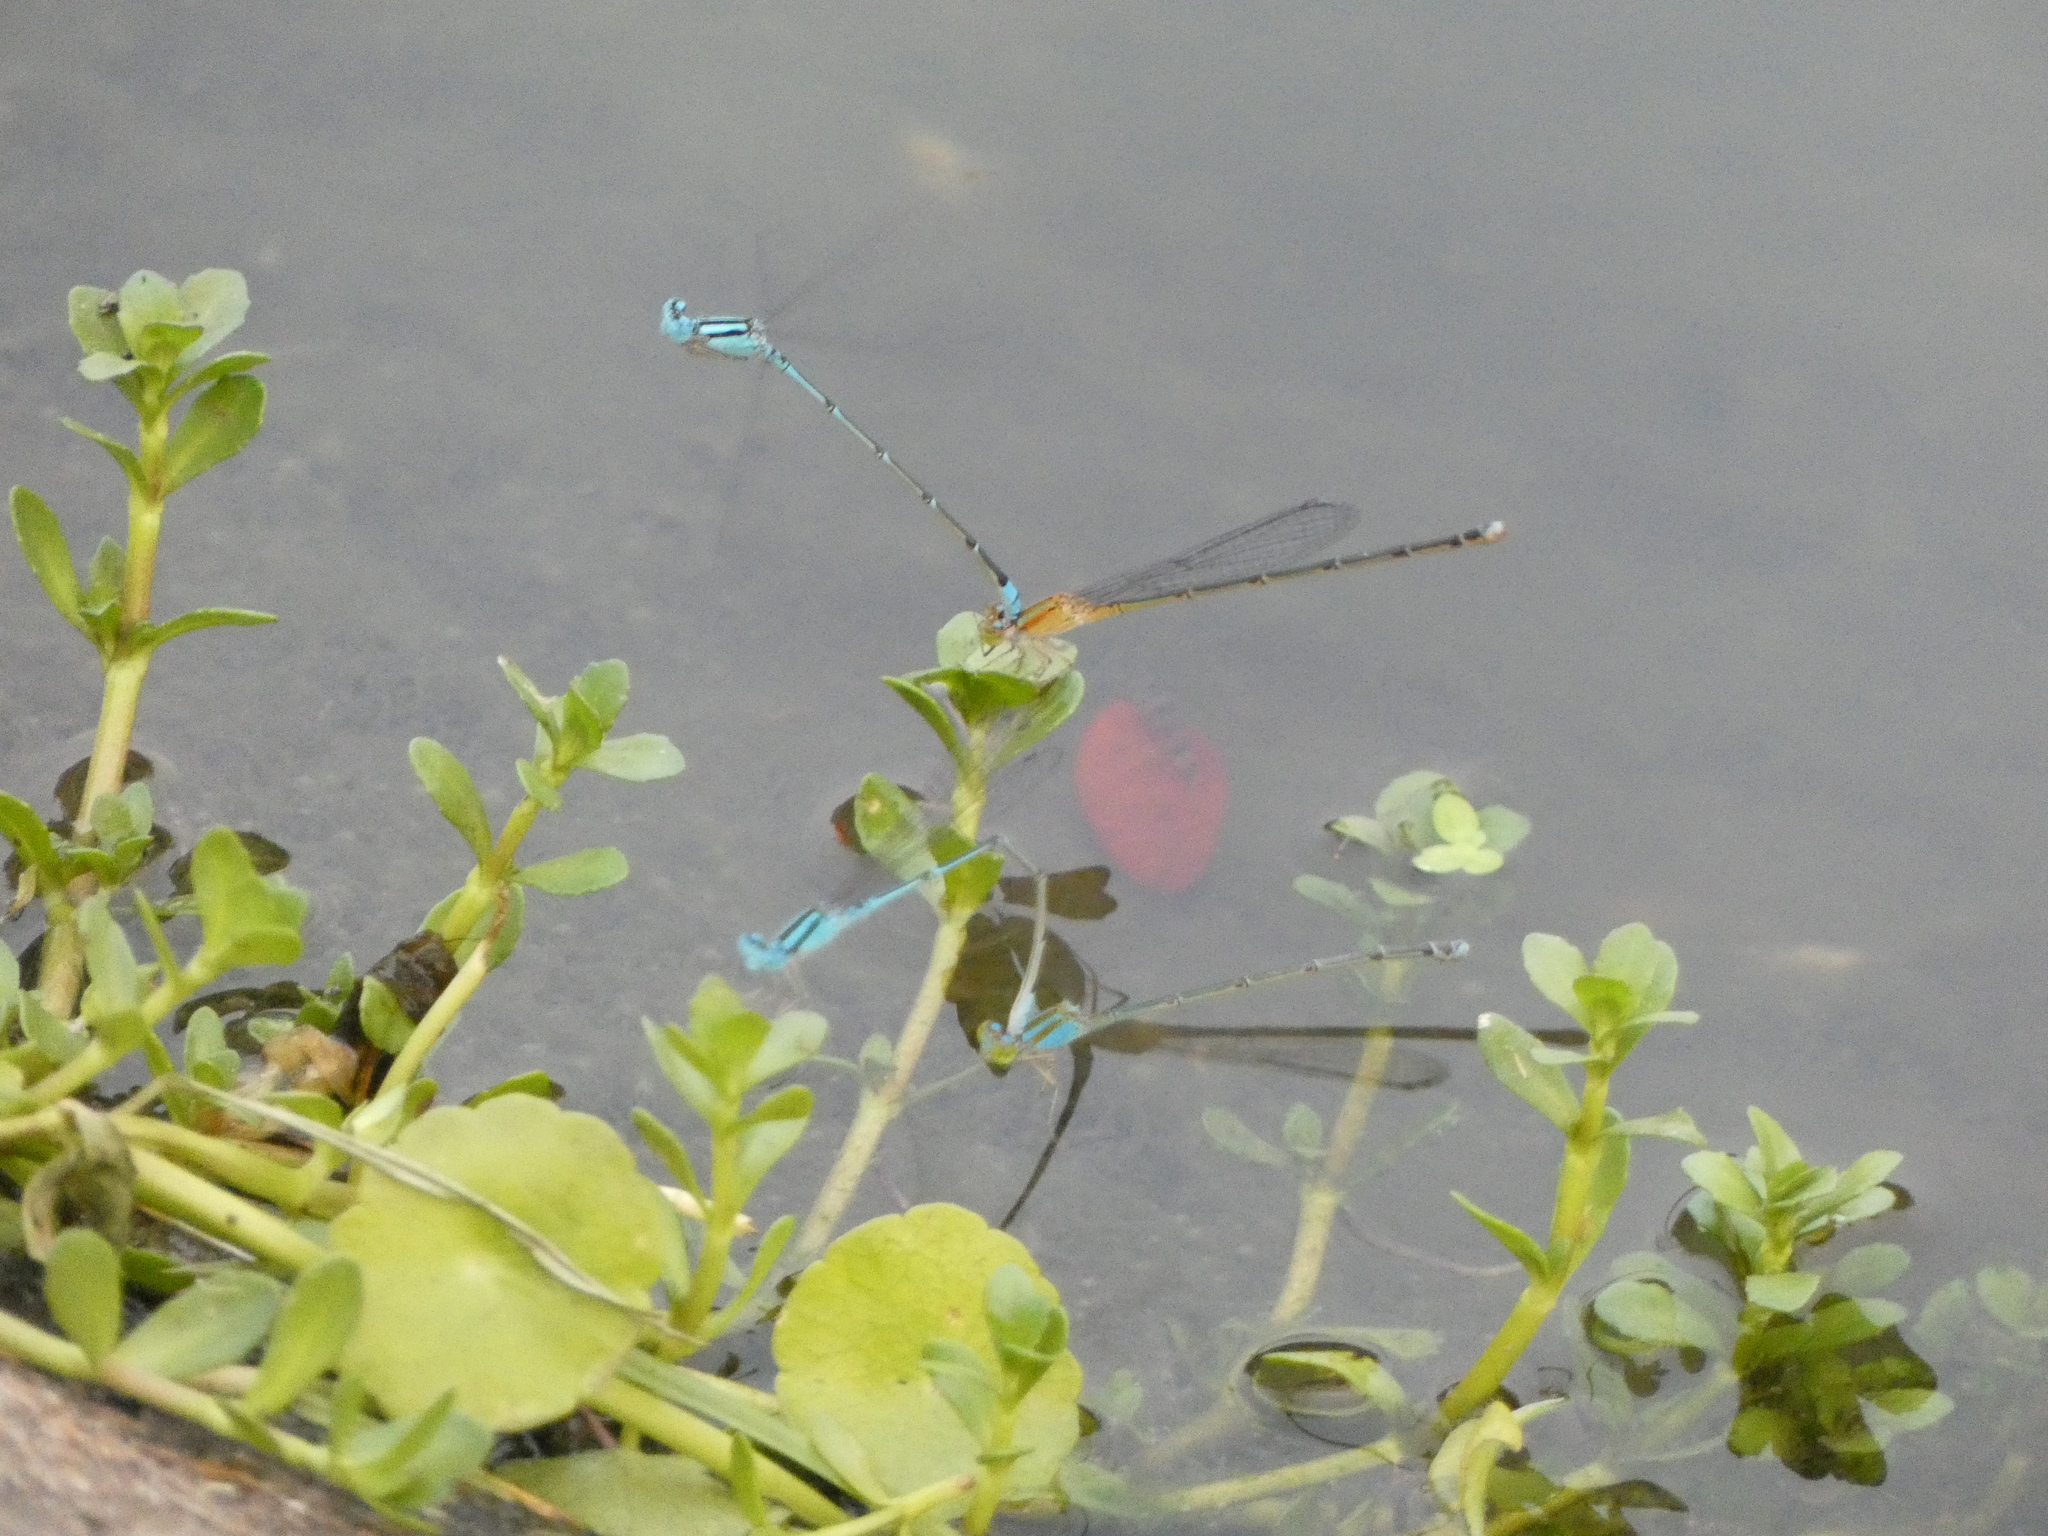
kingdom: Animalia
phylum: Arthropoda
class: Insecta
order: Odonata
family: Coenagrionidae
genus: Pseudagrion
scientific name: Pseudagrion microcephalum
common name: Blue riverdamsel
